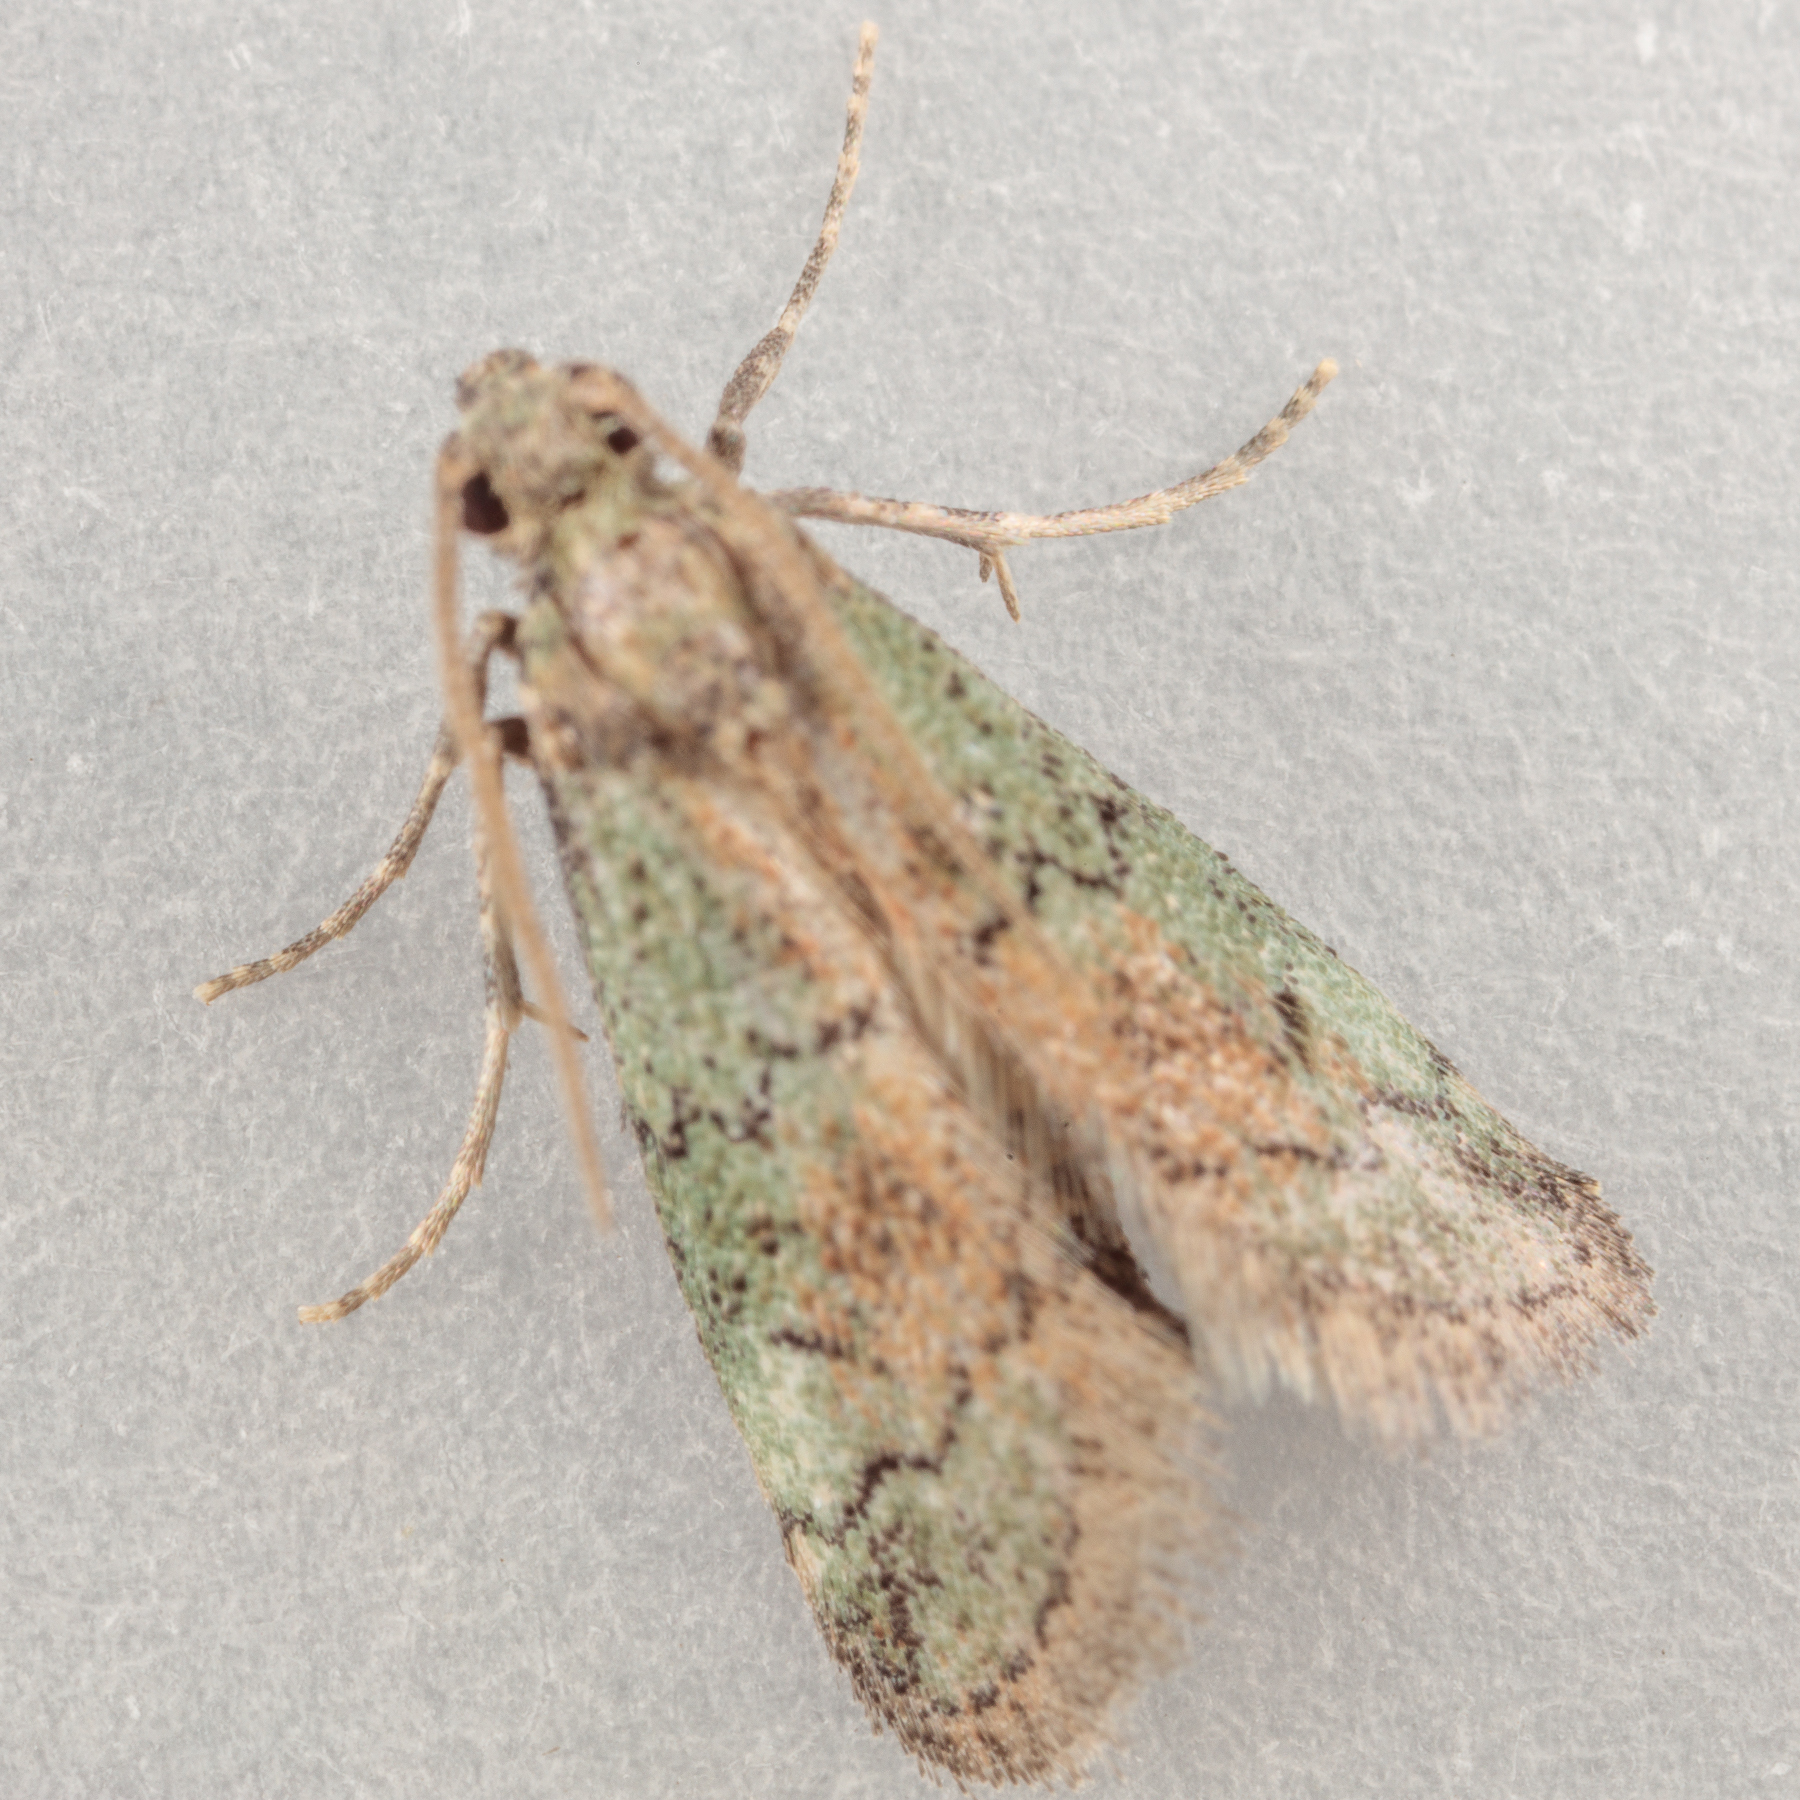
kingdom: Animalia
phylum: Arthropoda
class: Insecta
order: Lepidoptera
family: Pyralidae
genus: Cacotherapia
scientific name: Cacotherapia flexilinealis
